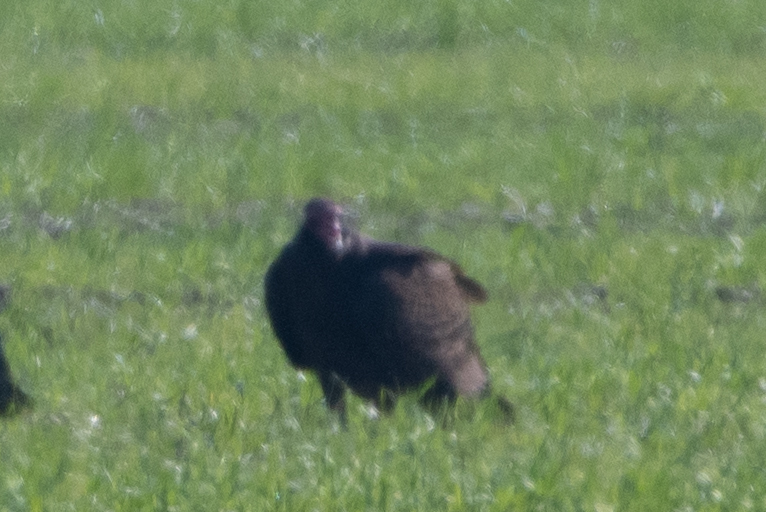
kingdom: Animalia
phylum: Chordata
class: Aves
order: Accipitriformes
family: Cathartidae
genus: Cathartes
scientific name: Cathartes aura
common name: Turkey vulture
